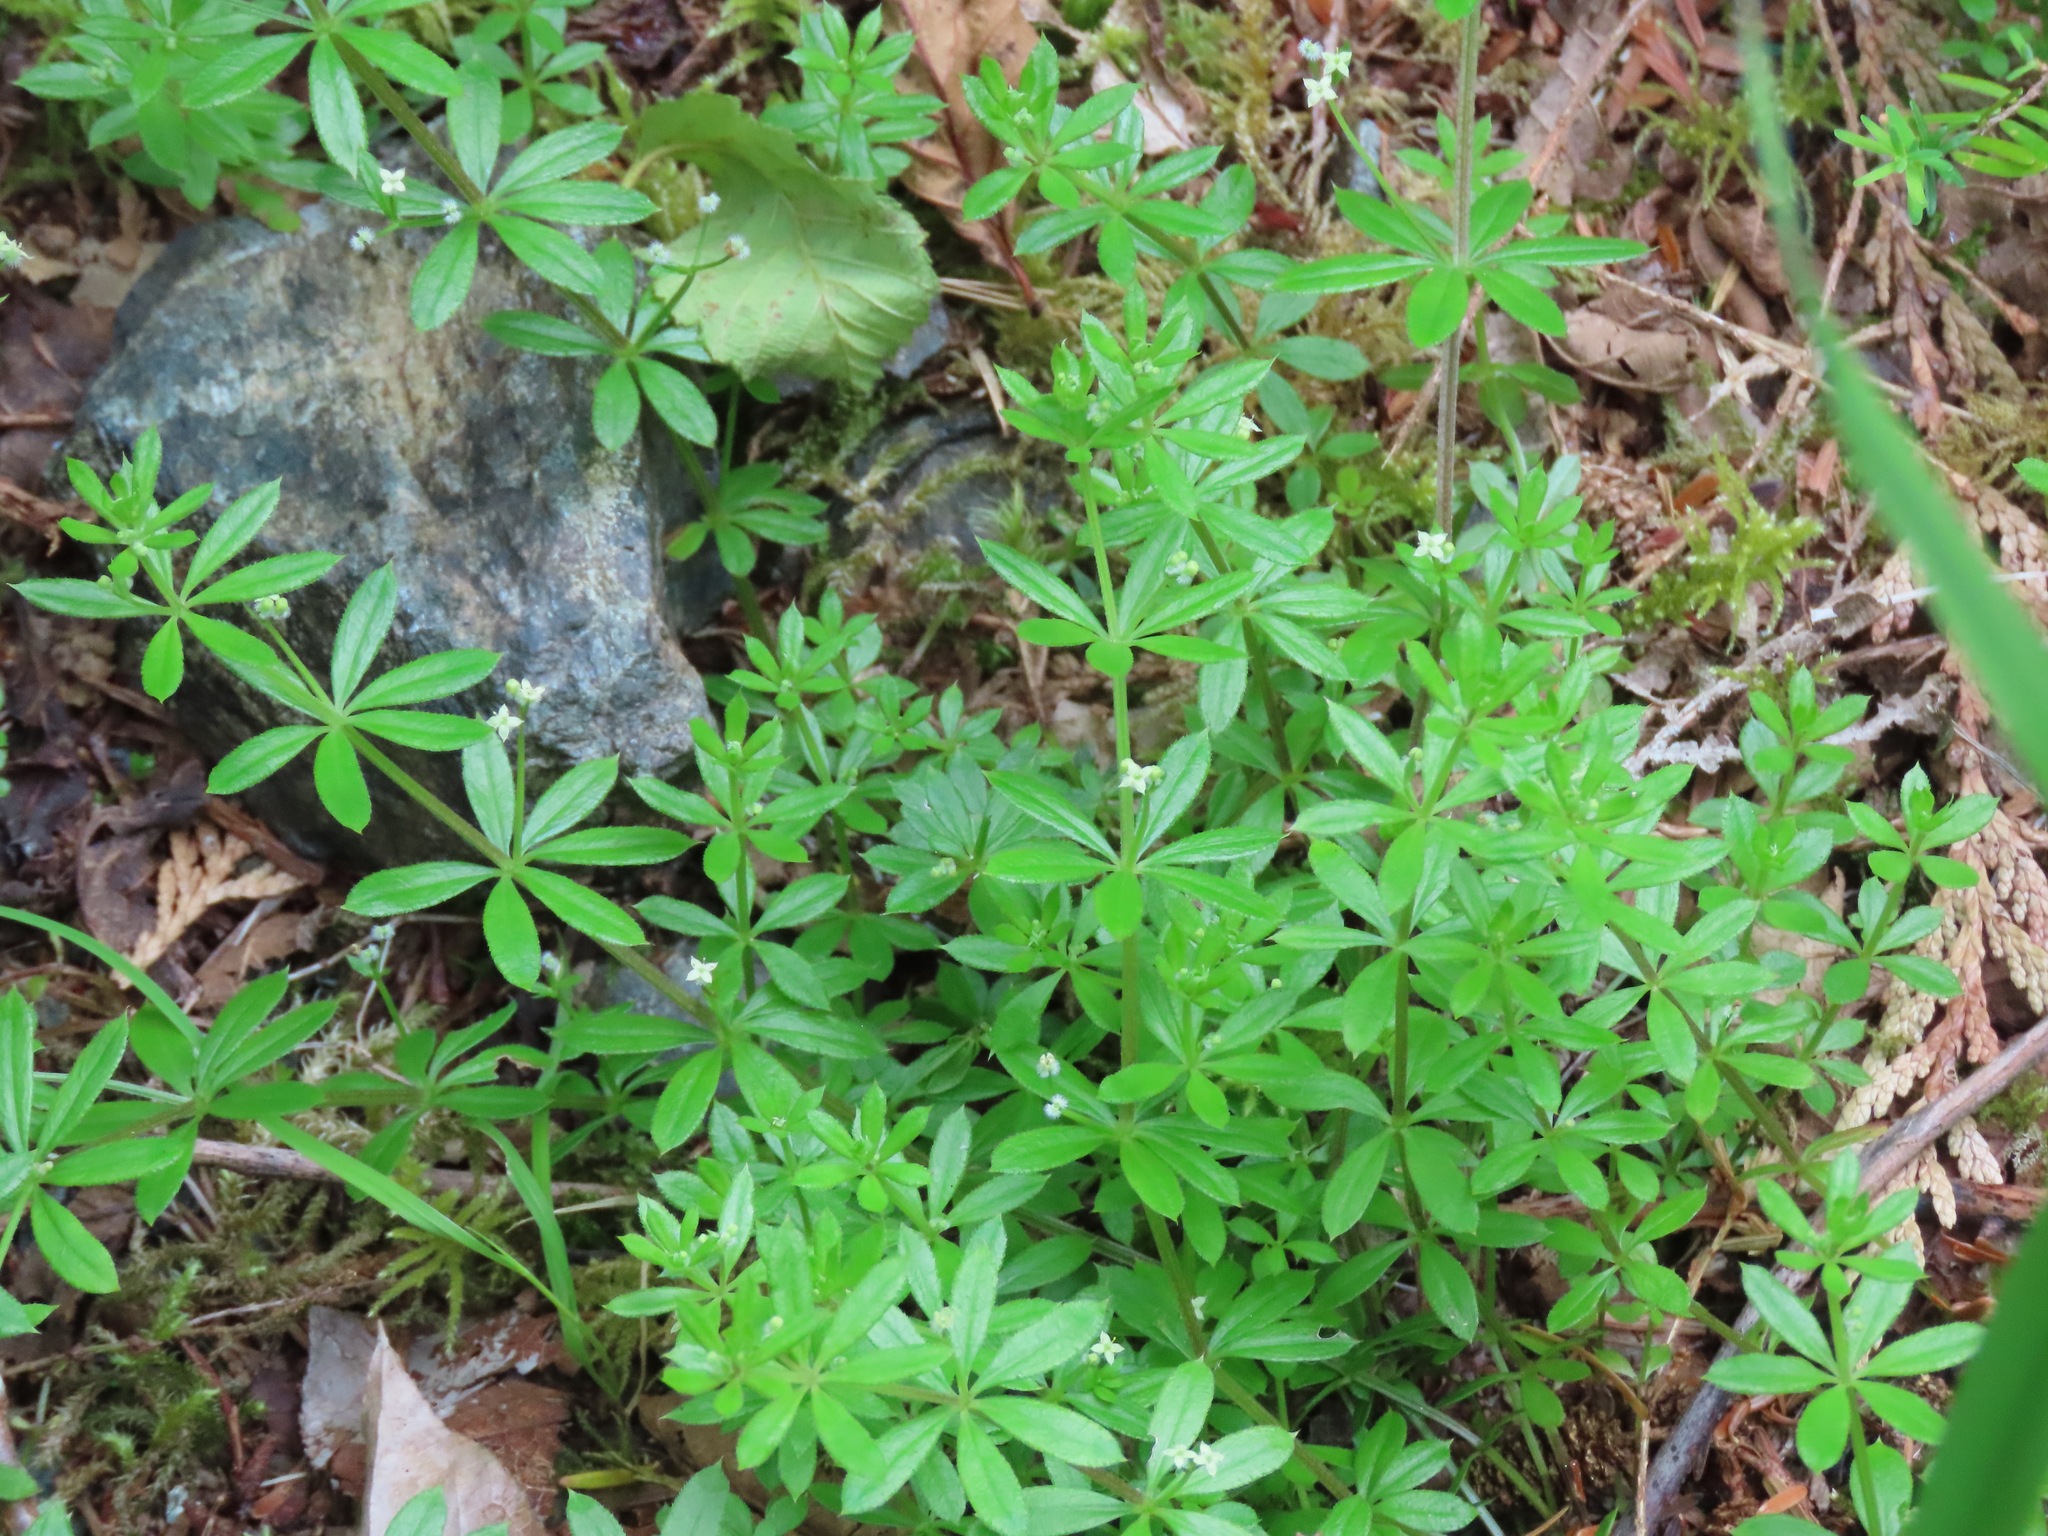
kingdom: Plantae
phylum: Tracheophyta
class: Magnoliopsida
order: Gentianales
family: Rubiaceae
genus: Galium
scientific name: Galium triflorum
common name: Fragrant bedstraw
